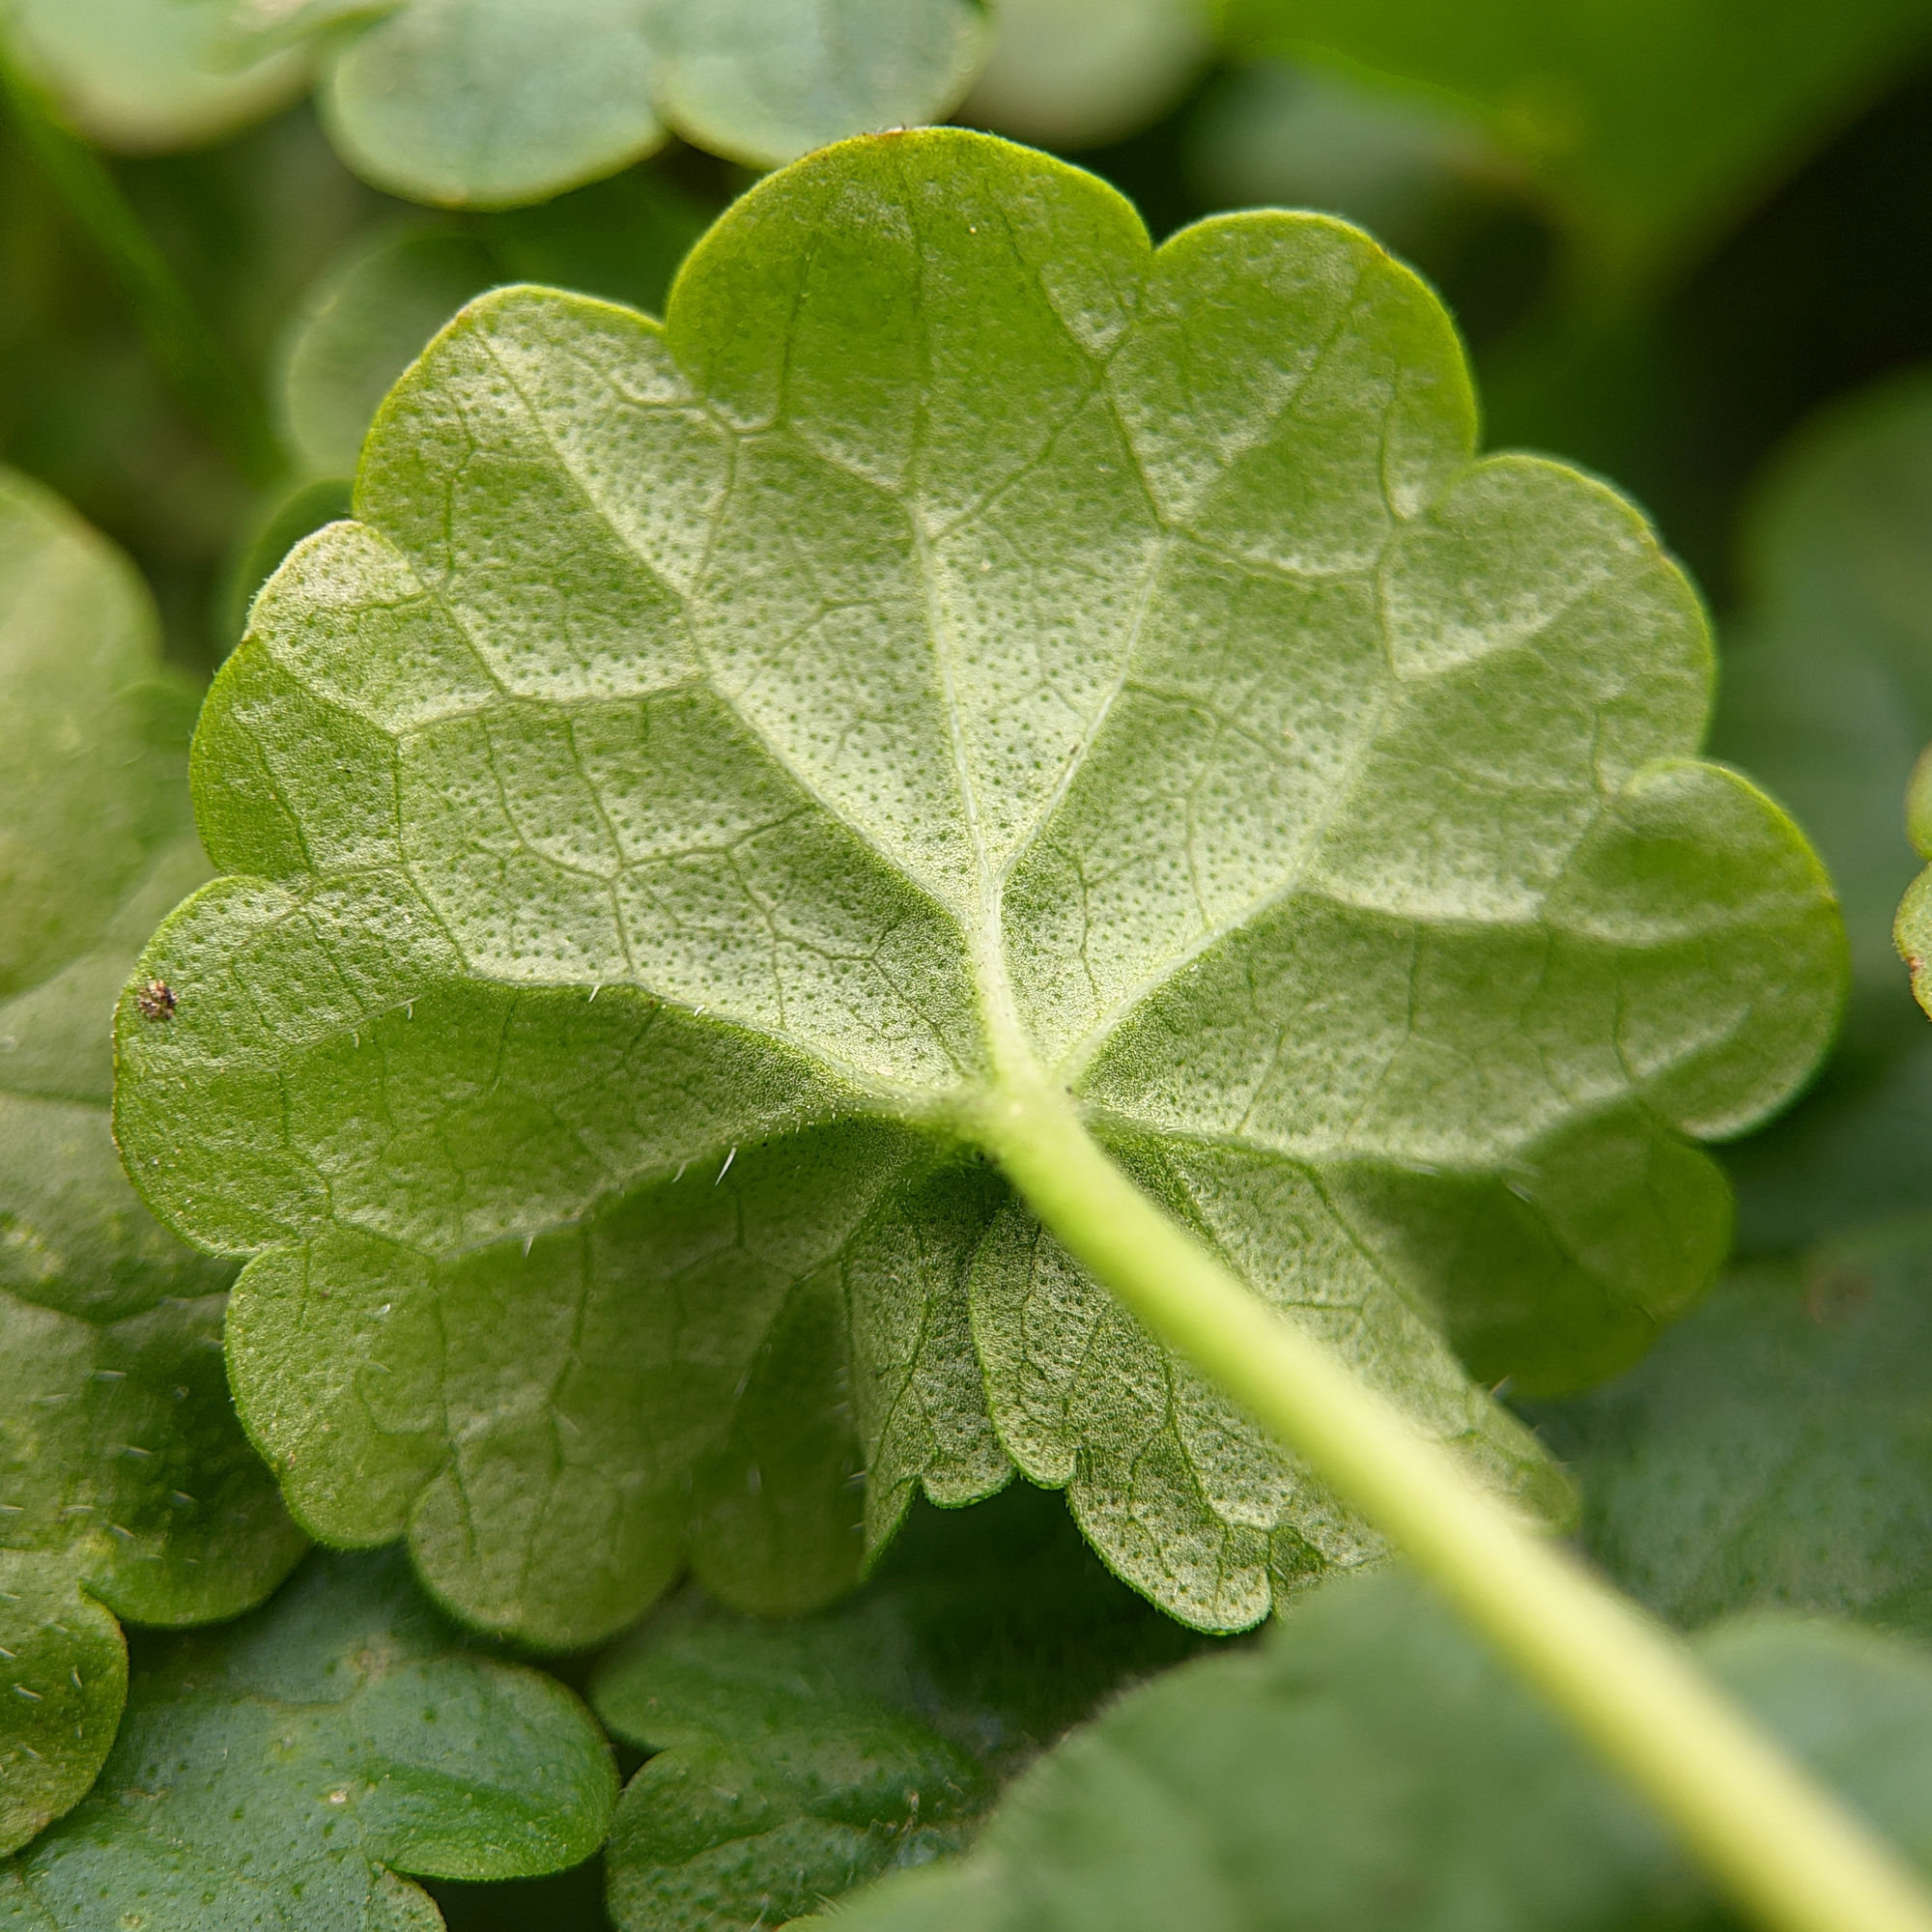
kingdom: Plantae
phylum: Tracheophyta
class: Magnoliopsida
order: Lamiales
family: Lamiaceae
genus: Glechoma
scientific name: Glechoma hederacea
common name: Ground ivy
